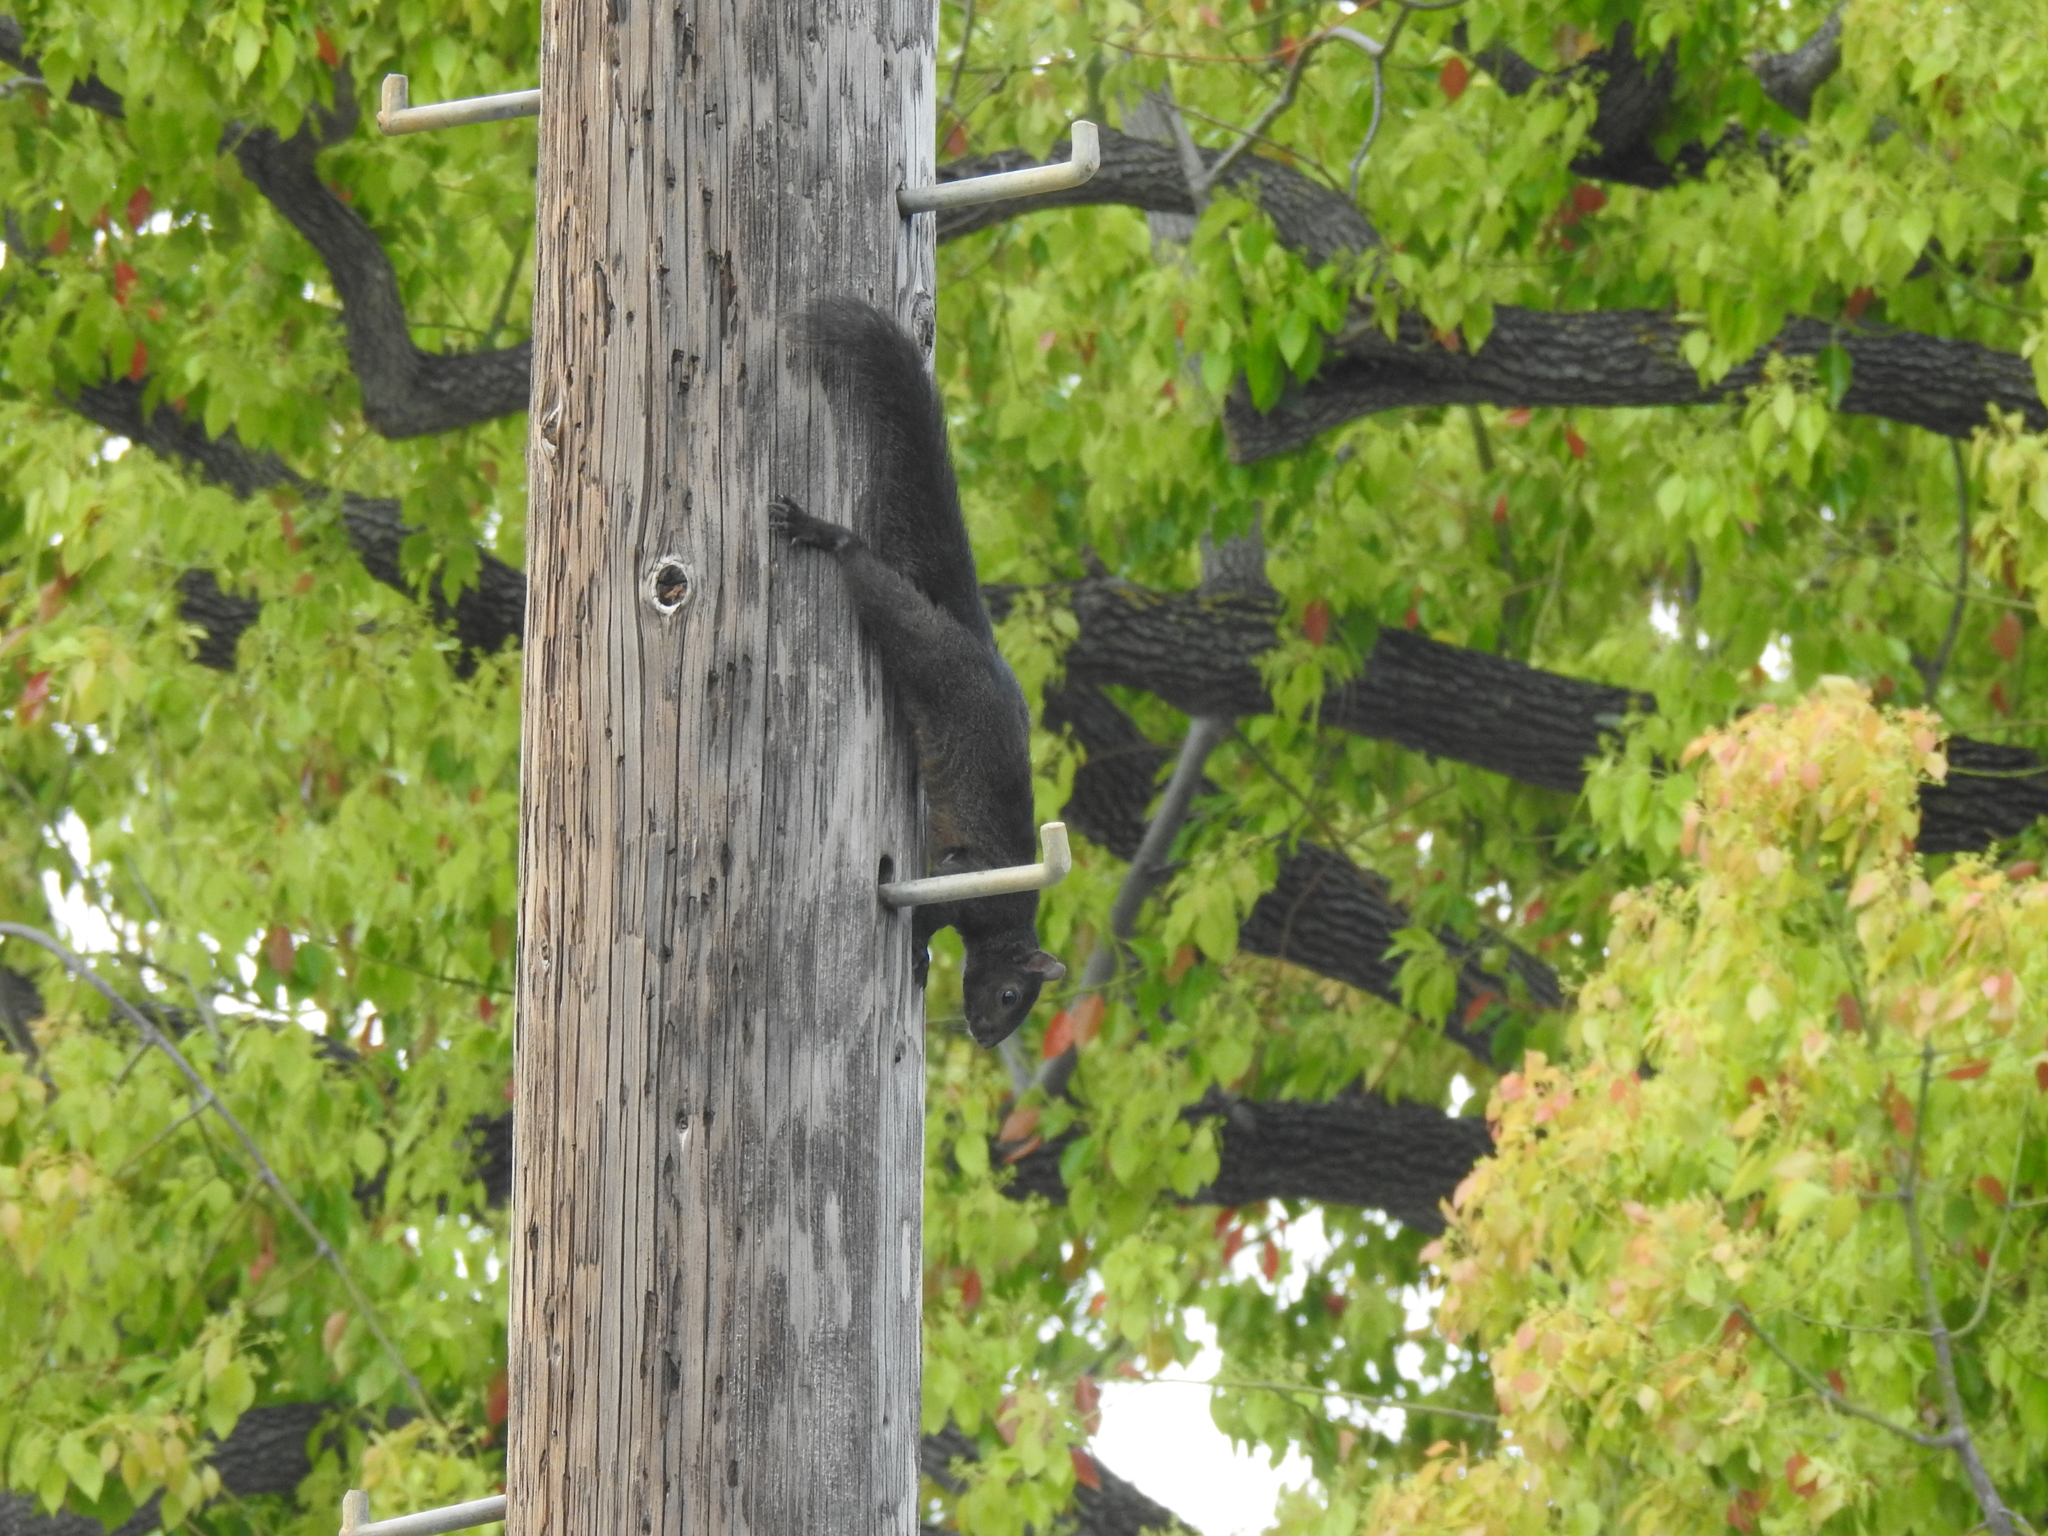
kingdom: Animalia
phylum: Chordata
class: Mammalia
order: Rodentia
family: Sciuridae
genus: Sciurus
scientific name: Sciurus carolinensis
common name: Eastern gray squirrel
